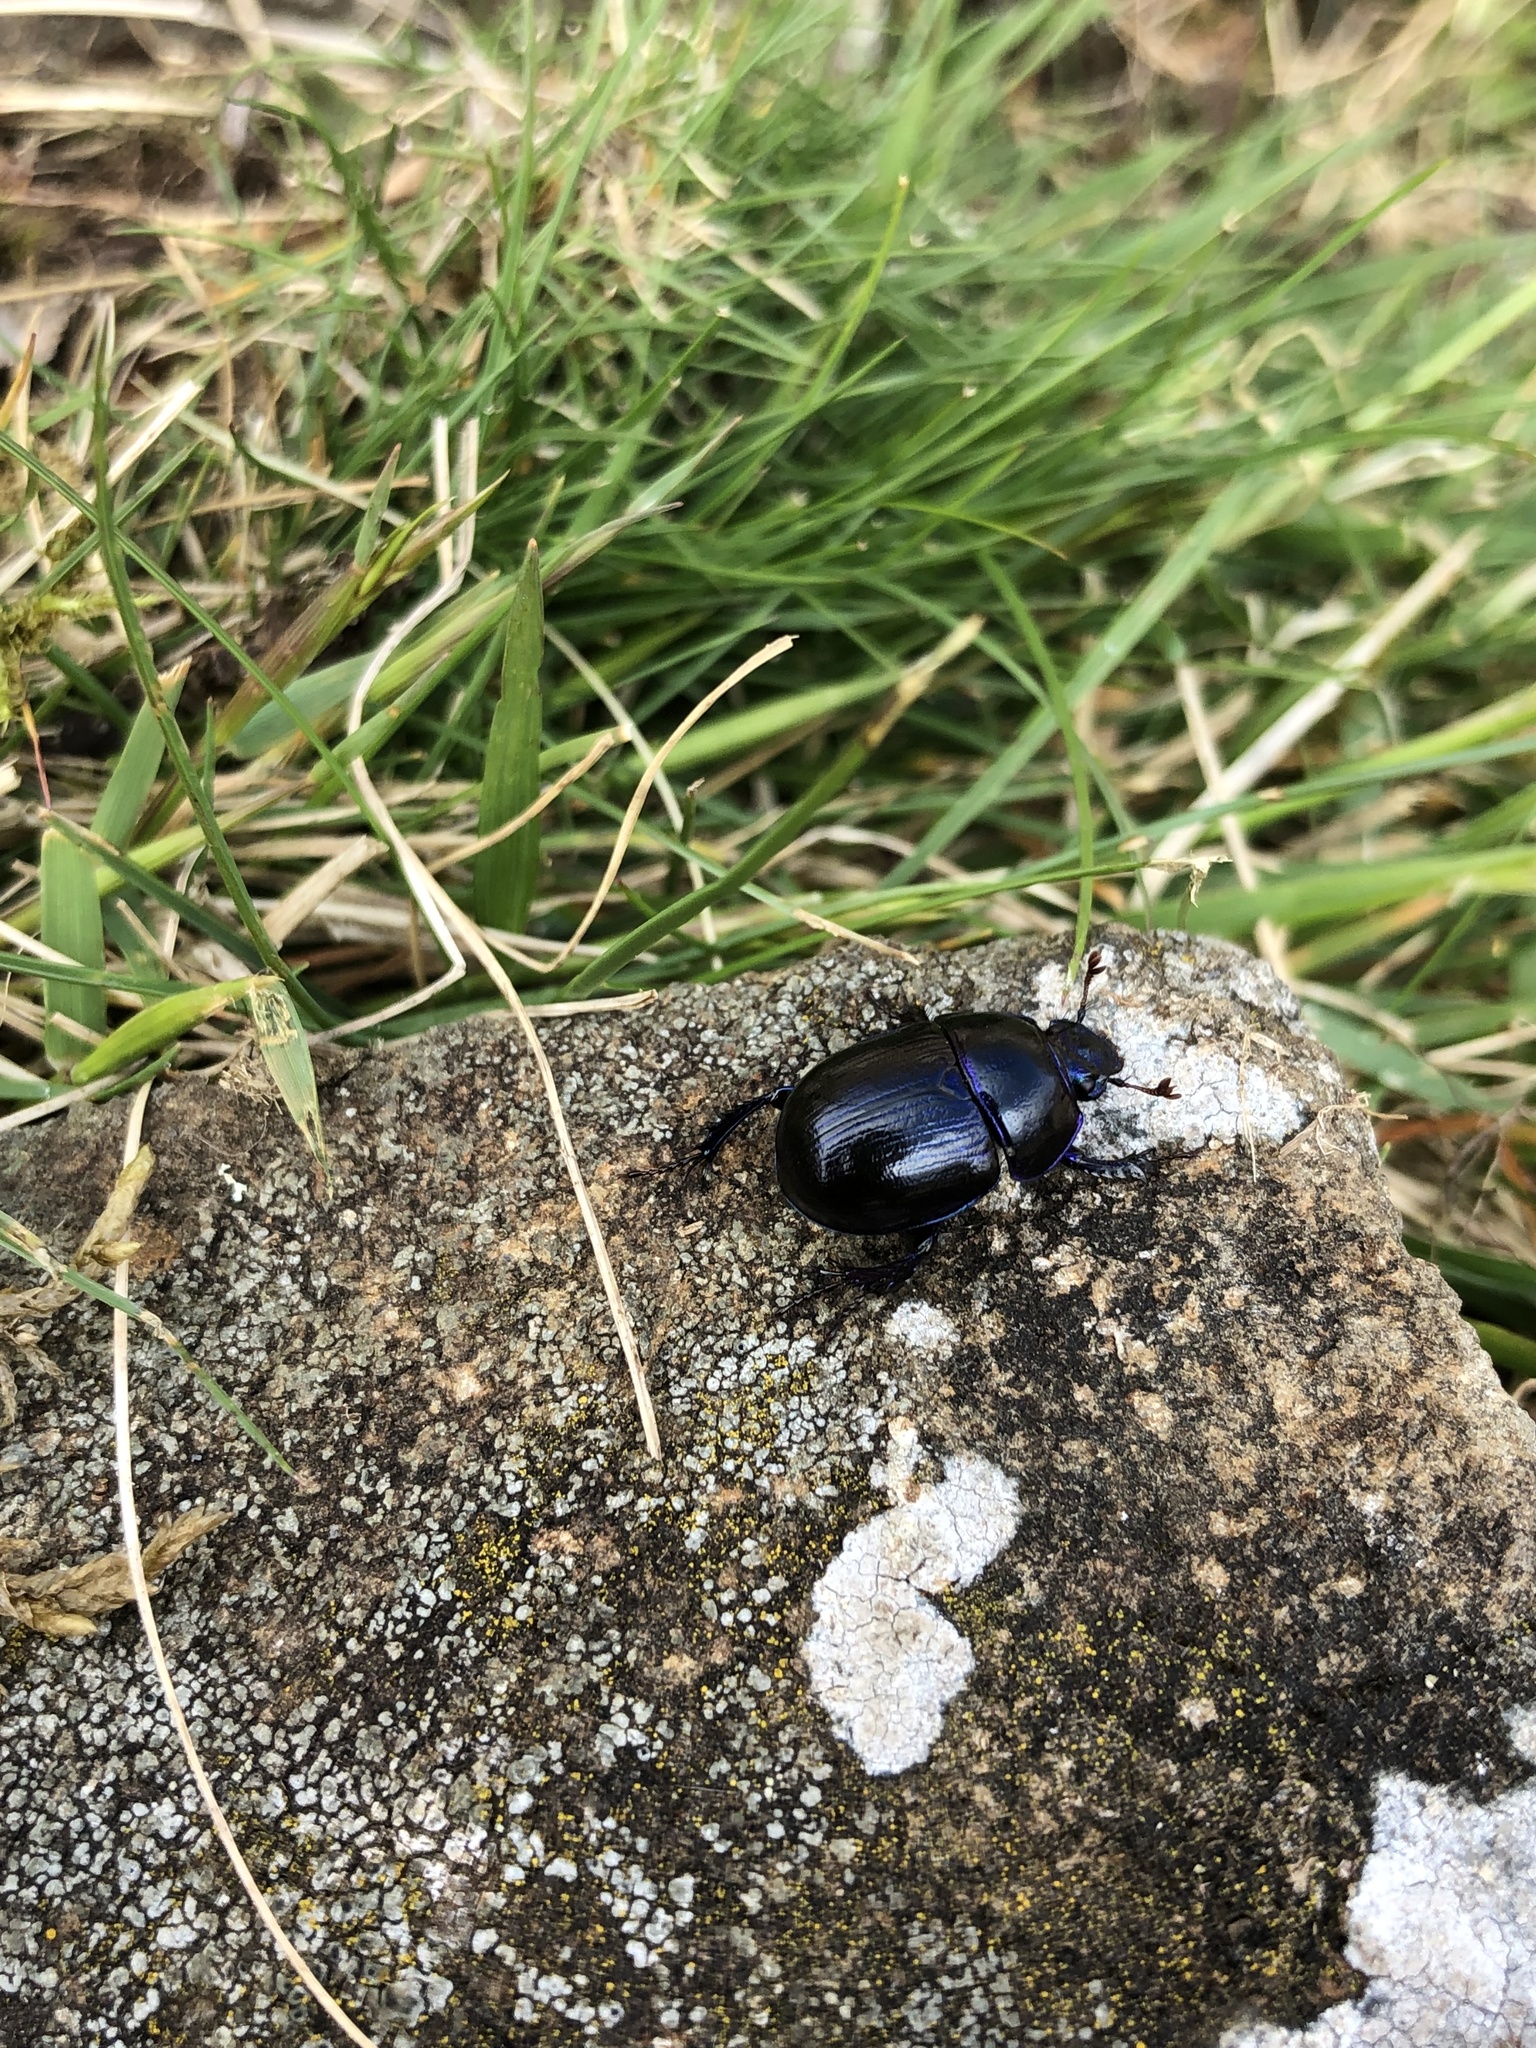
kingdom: Animalia
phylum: Arthropoda
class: Insecta
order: Coleoptera
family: Geotrupidae
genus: Anoplotrupes
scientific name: Anoplotrupes stercorosus
